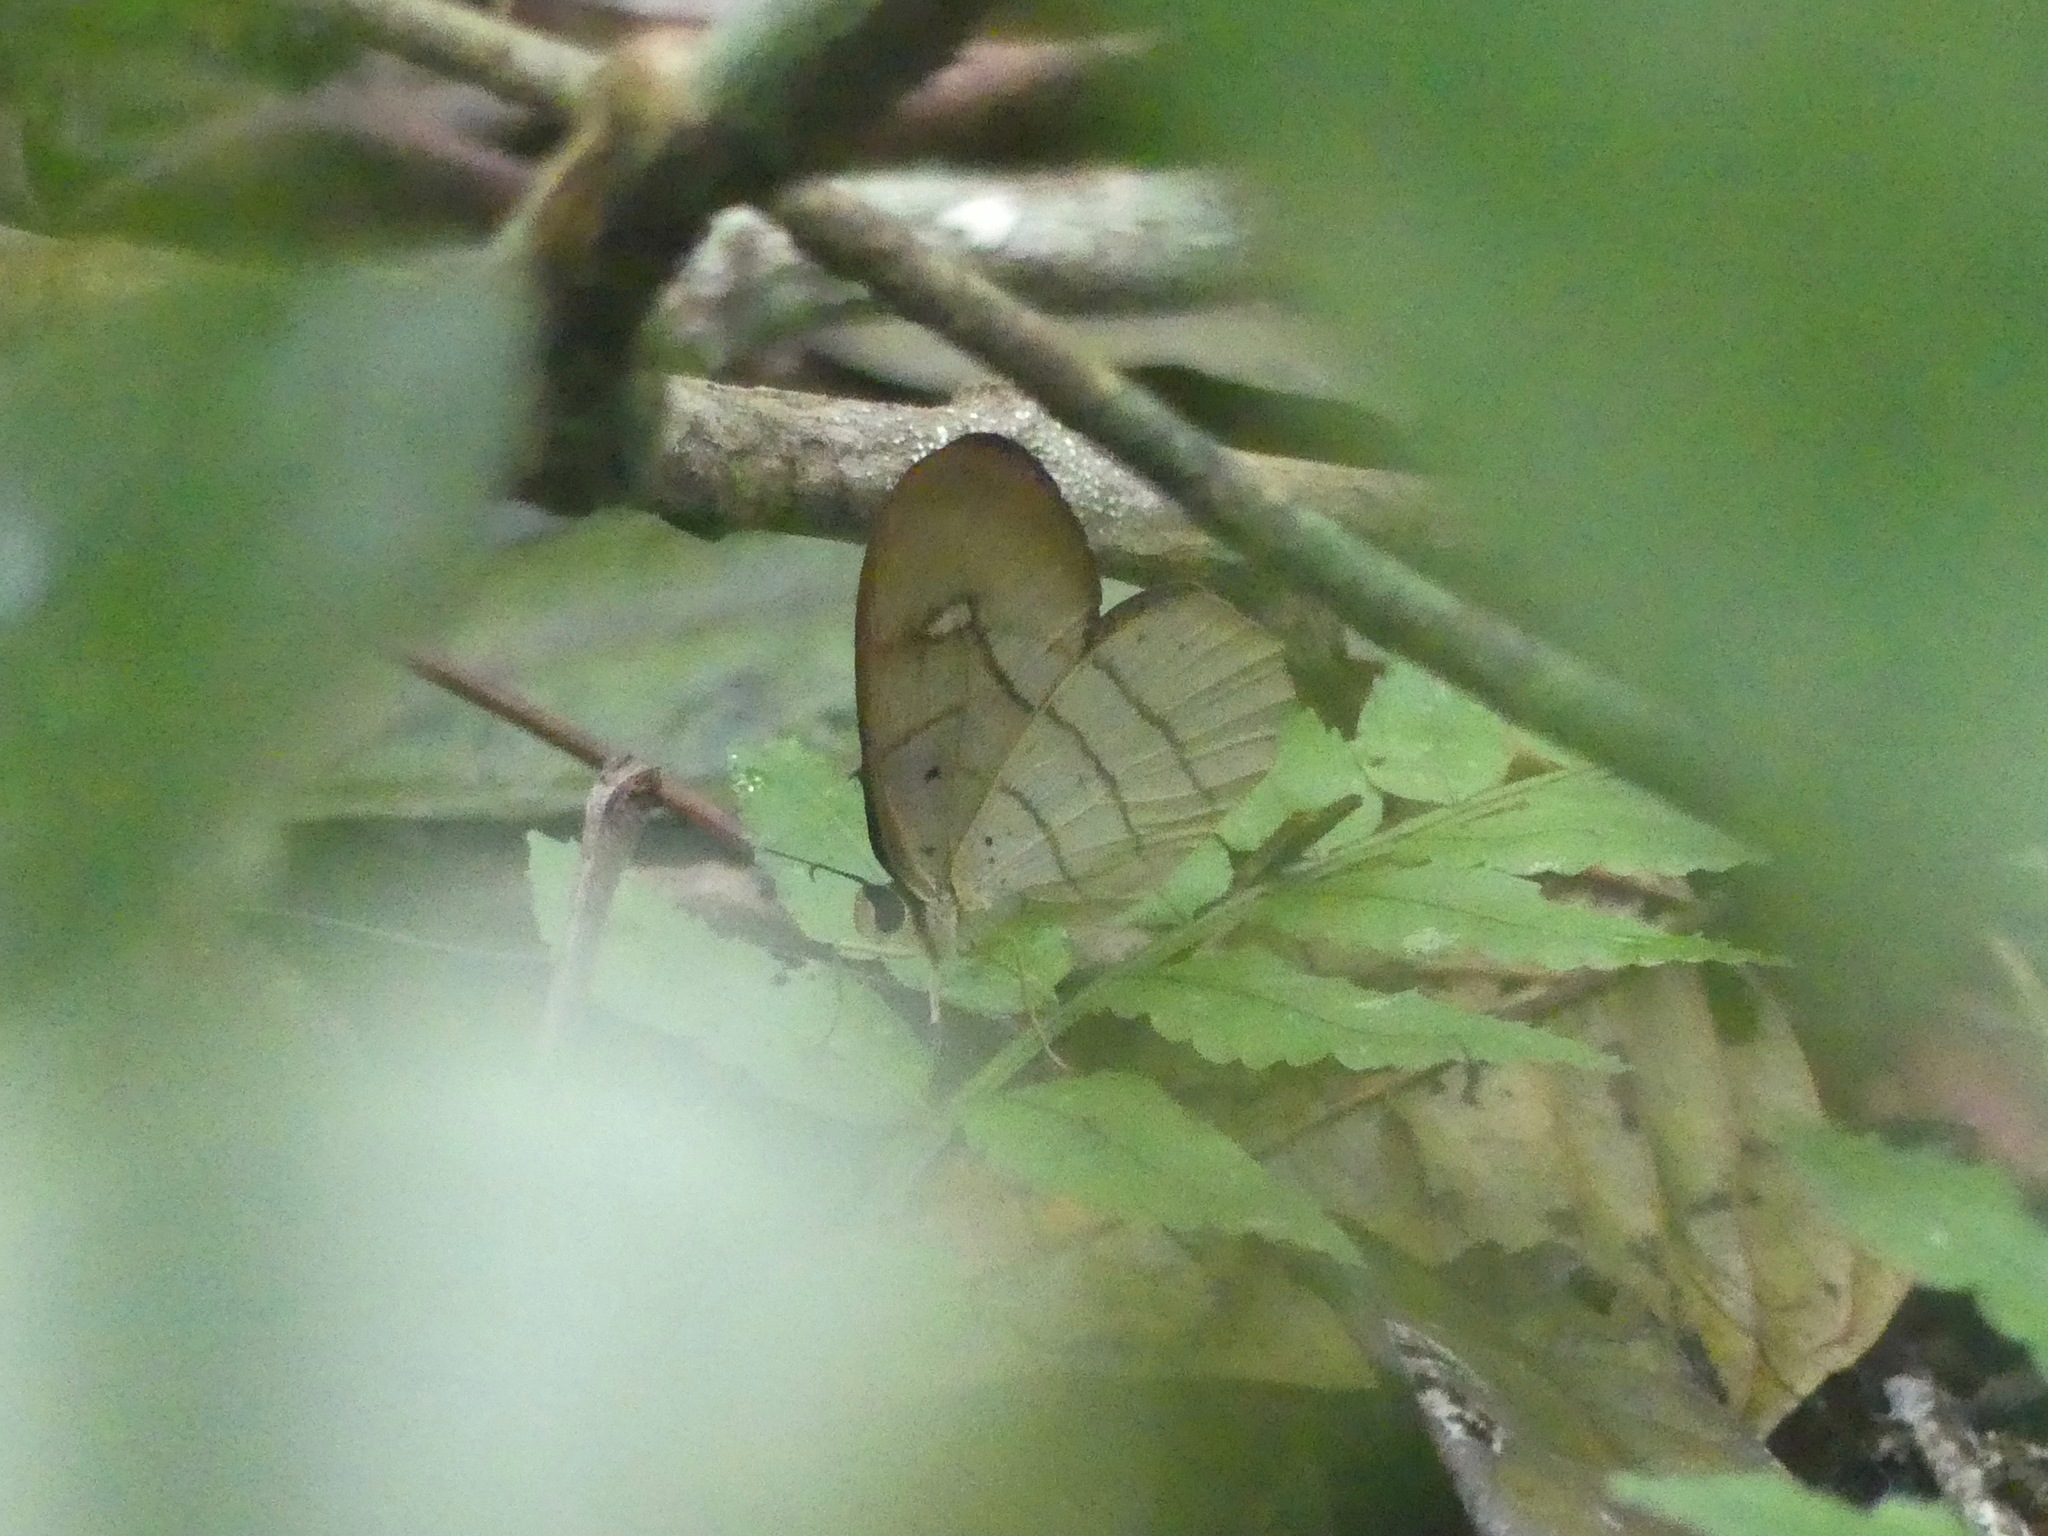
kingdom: Animalia
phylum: Arthropoda
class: Insecta
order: Lepidoptera
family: Nymphalidae
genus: Pierella
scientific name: Pierella hortona
